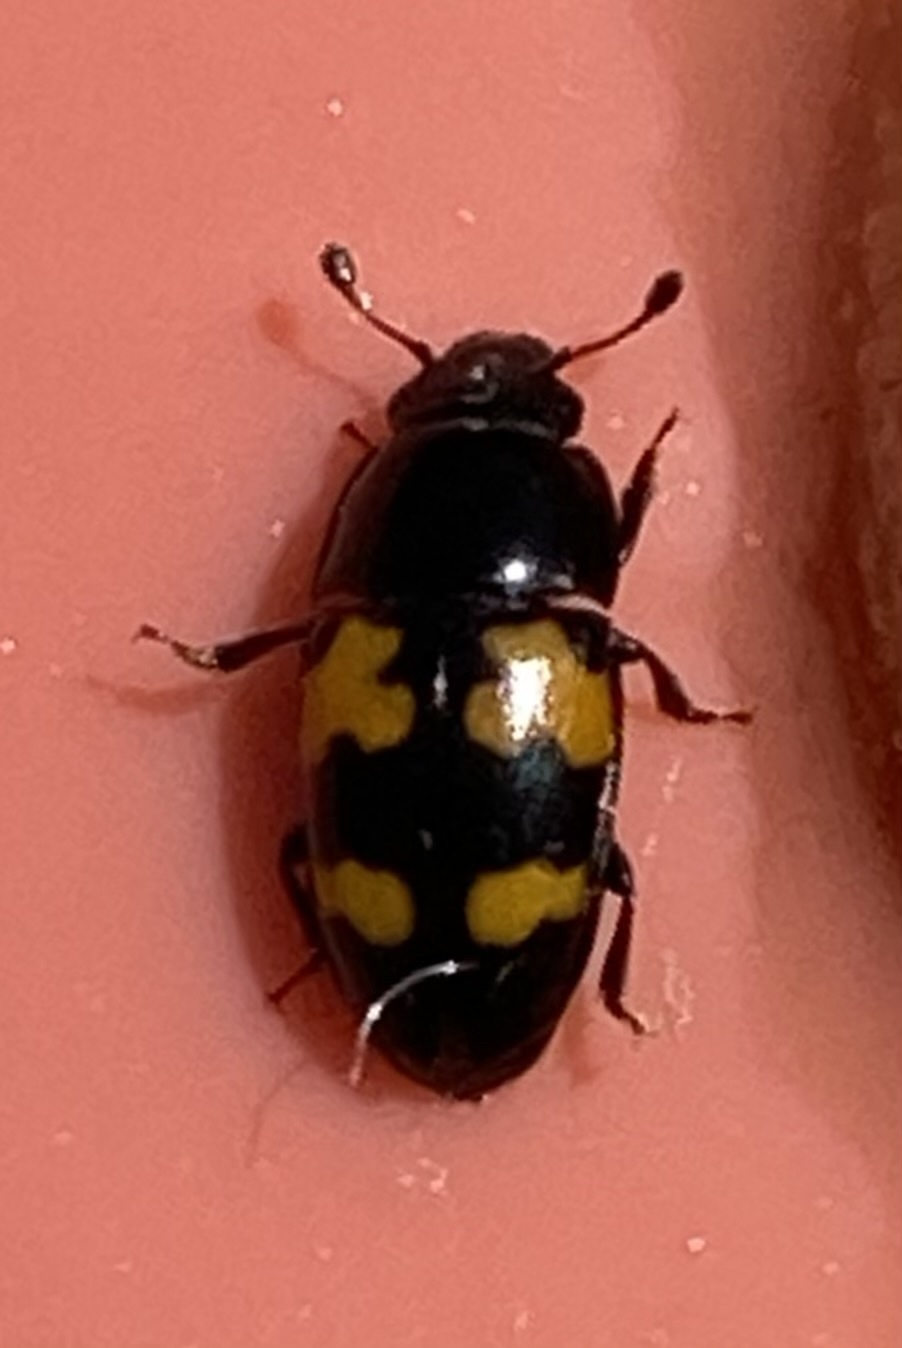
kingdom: Animalia
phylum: Arthropoda
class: Insecta
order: Coleoptera
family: Nitidulidae
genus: Glischrochilus
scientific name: Glischrochilus fasciatus
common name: Picnic beetle
